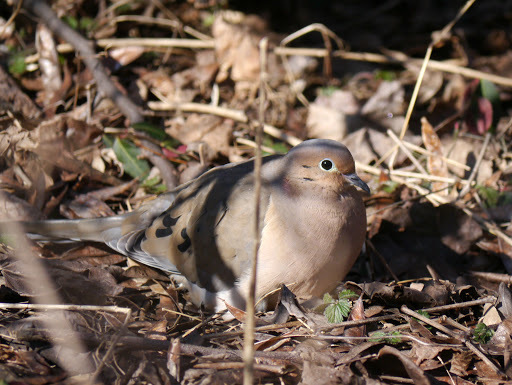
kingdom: Animalia
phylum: Chordata
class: Aves
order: Columbiformes
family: Columbidae
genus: Zenaida
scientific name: Zenaida macroura
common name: Mourning dove
